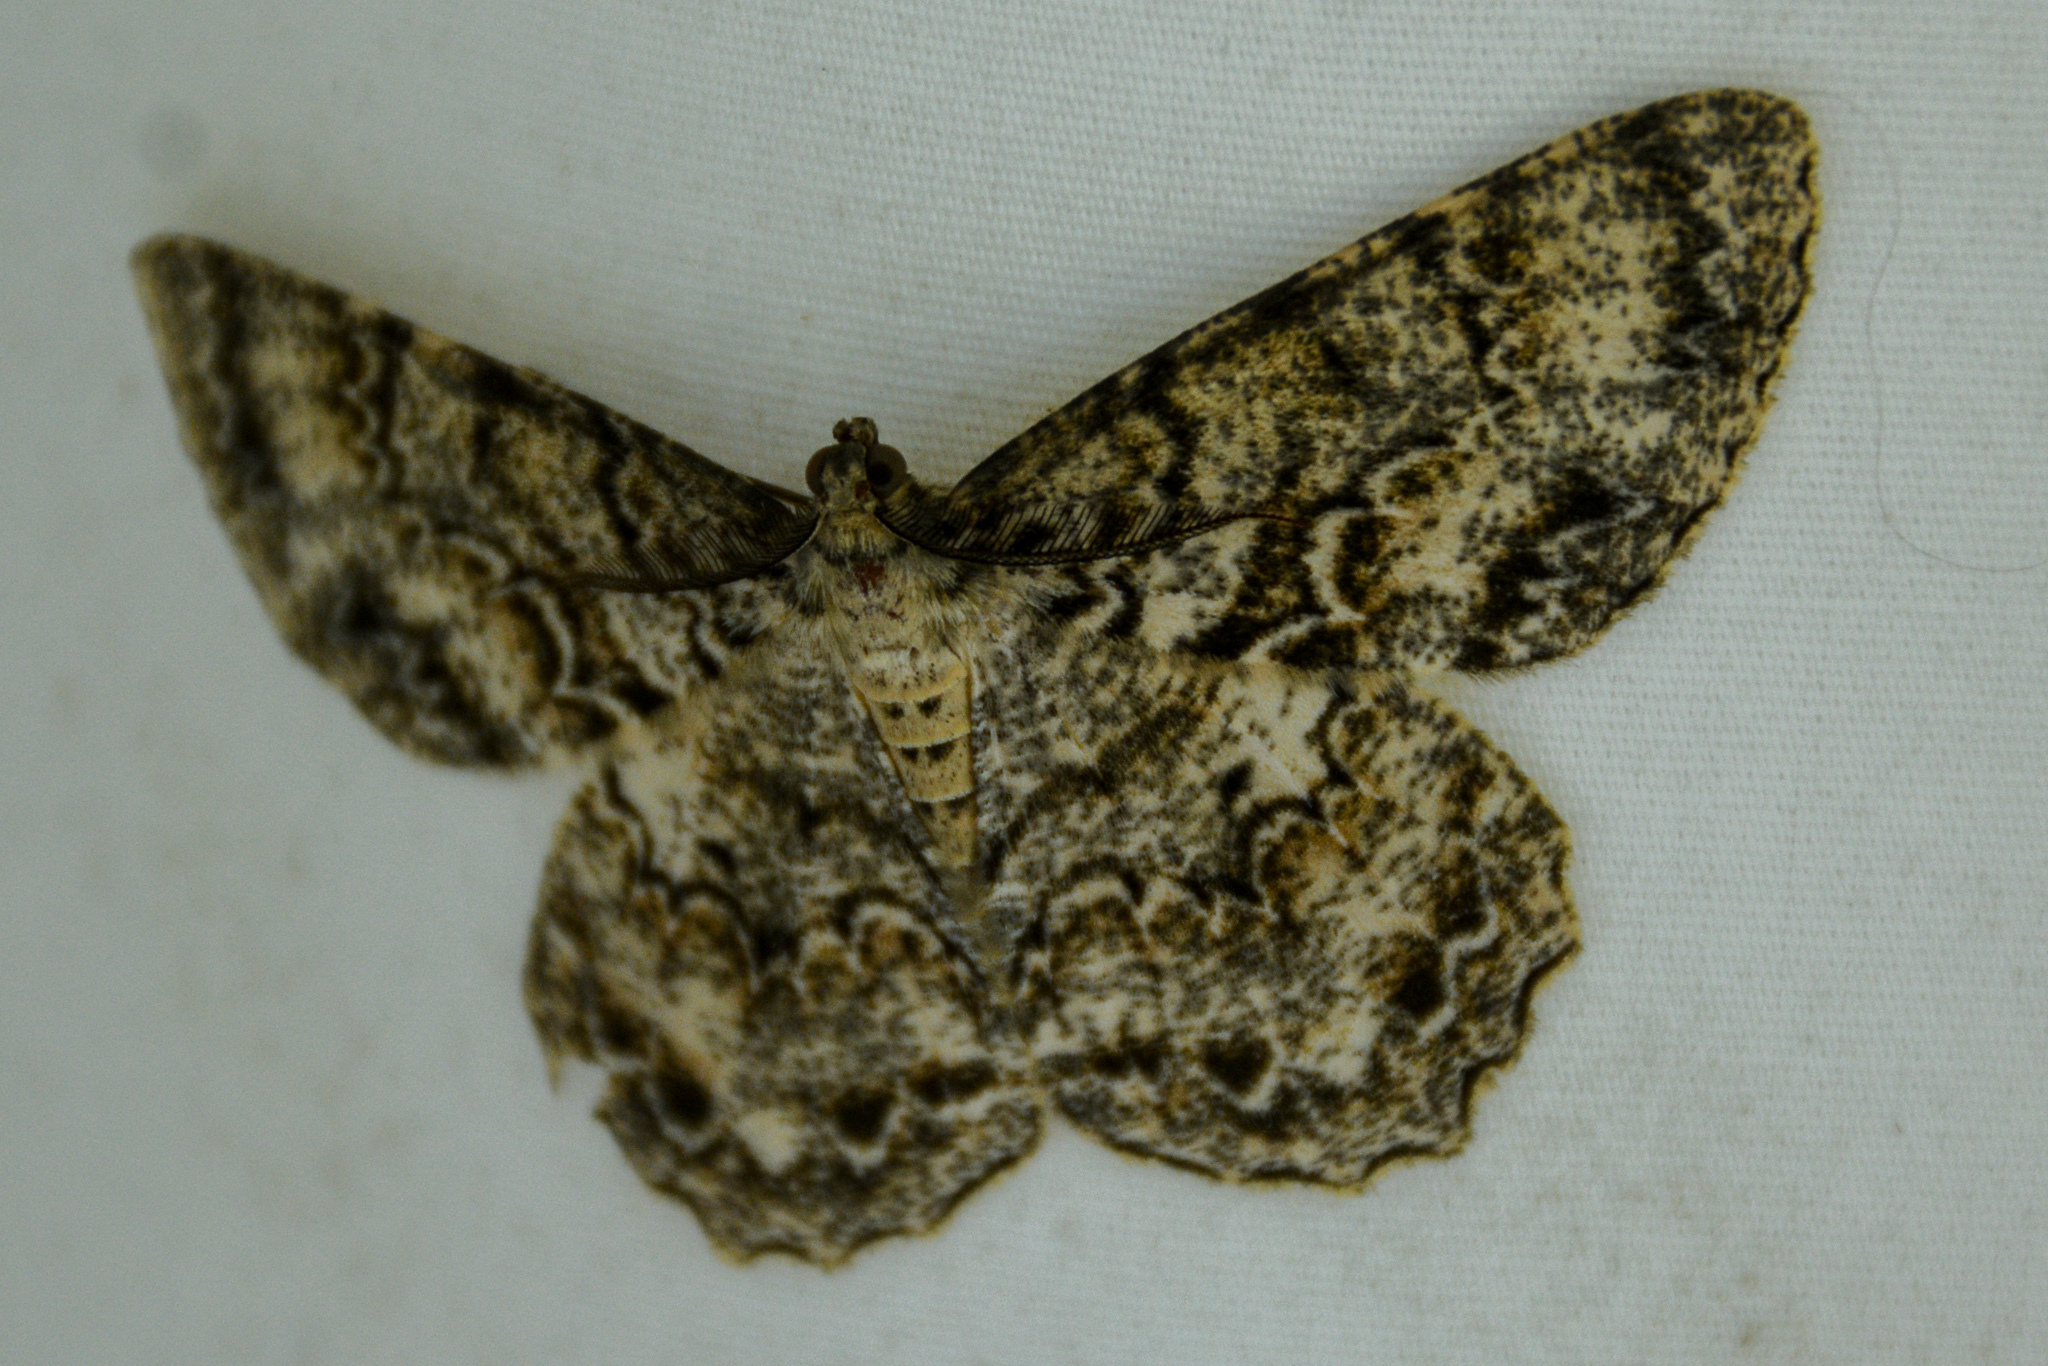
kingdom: Animalia
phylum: Arthropoda
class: Insecta
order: Lepidoptera
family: Geometridae
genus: Epimecis
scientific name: Epimecis hortaria
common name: Tulip-tree beauty
